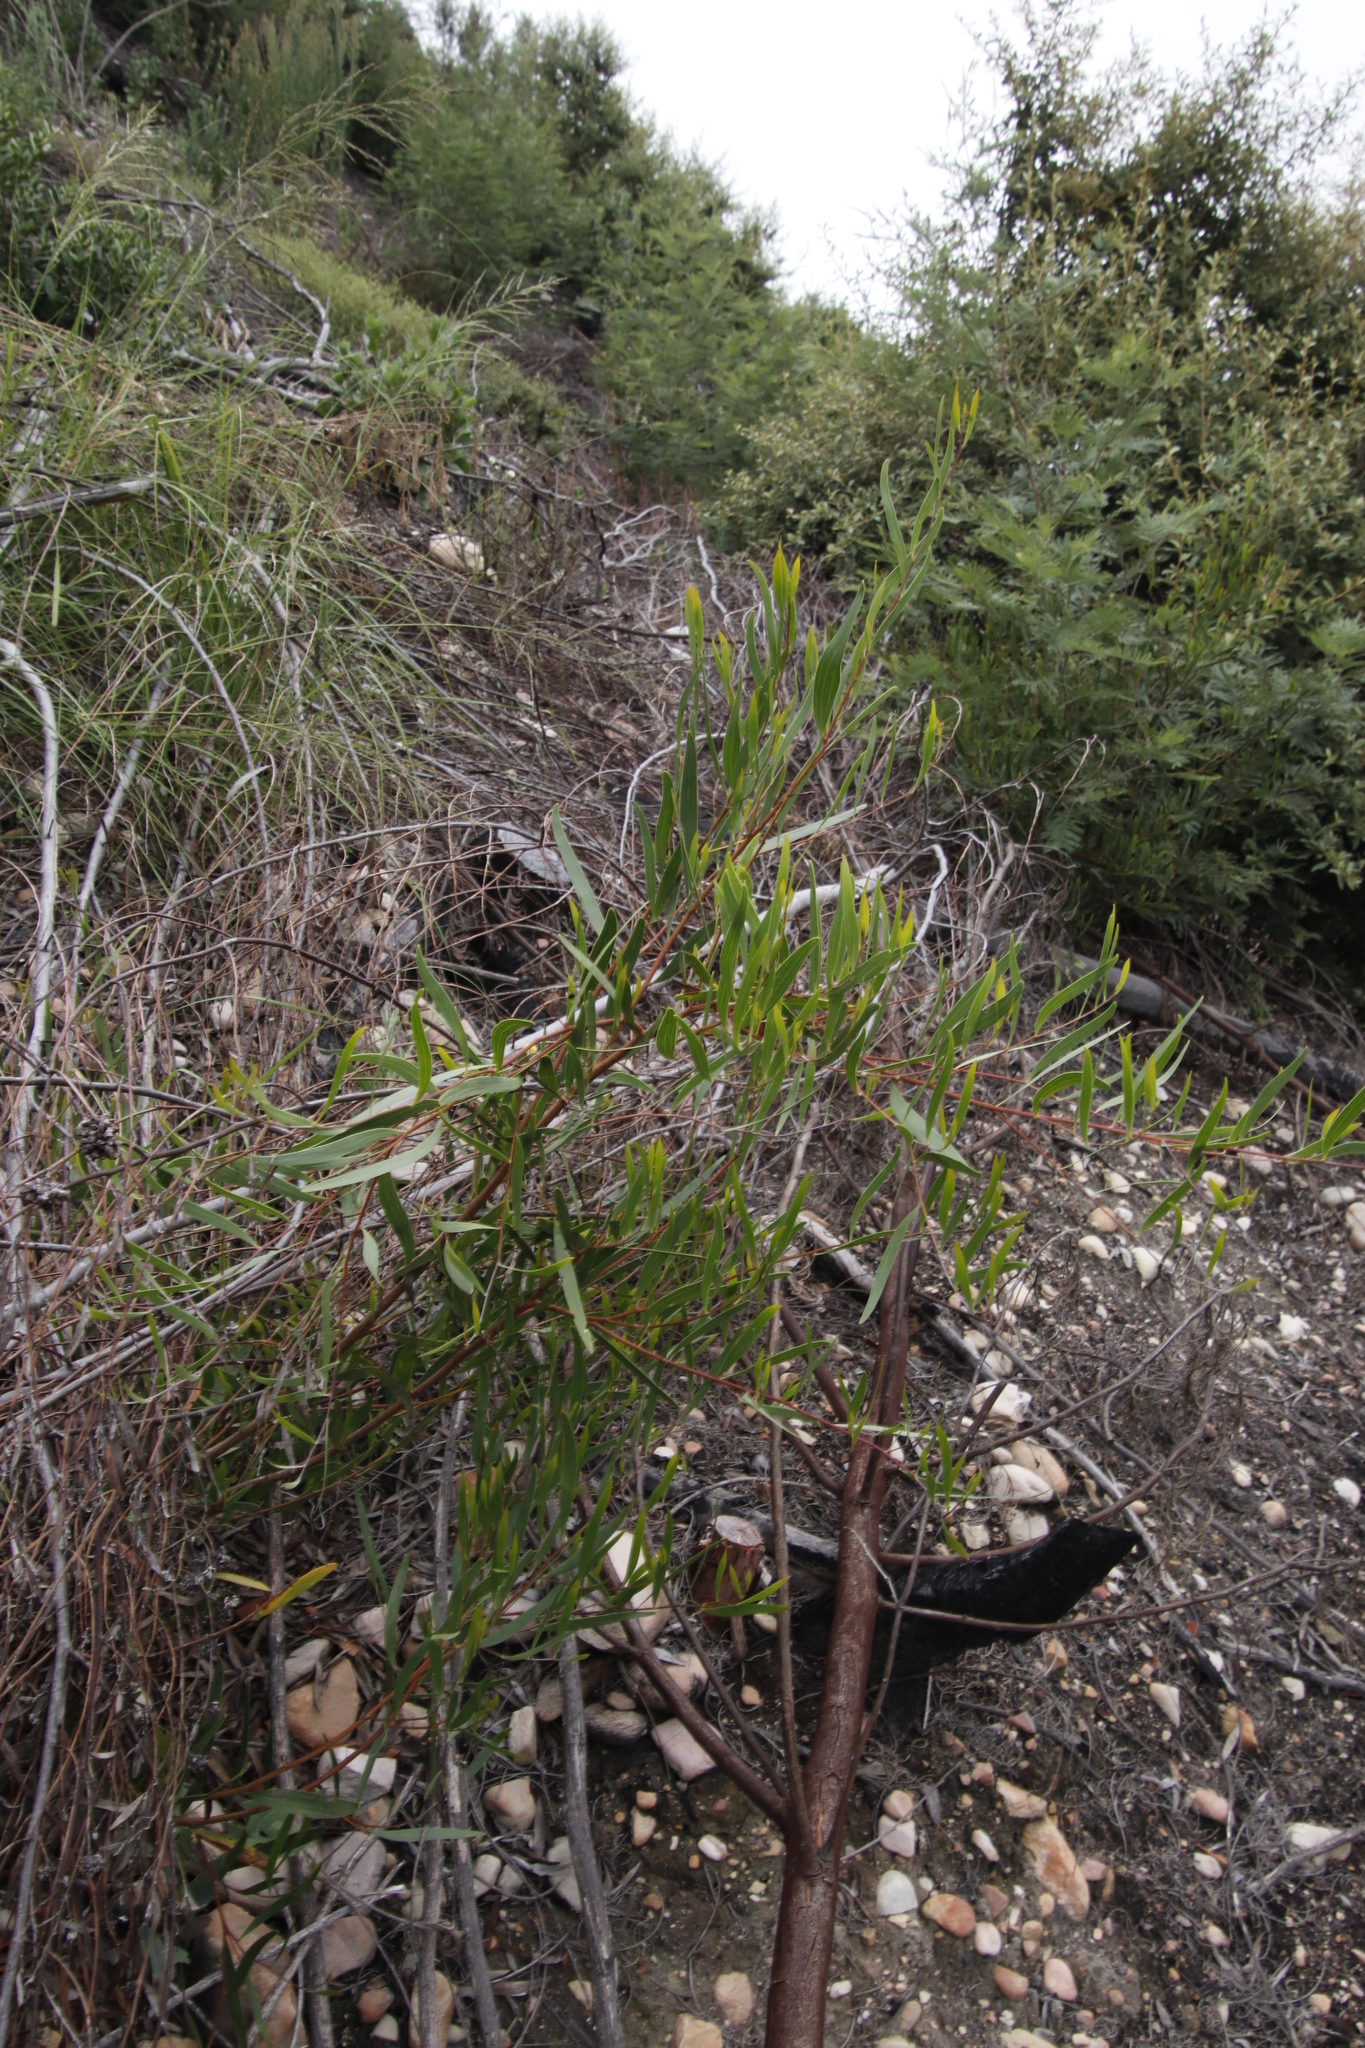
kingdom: Plantae
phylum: Tracheophyta
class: Magnoliopsida
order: Fabales
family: Fabaceae
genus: Acacia
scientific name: Acacia cyclops
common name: Coastal wattle
